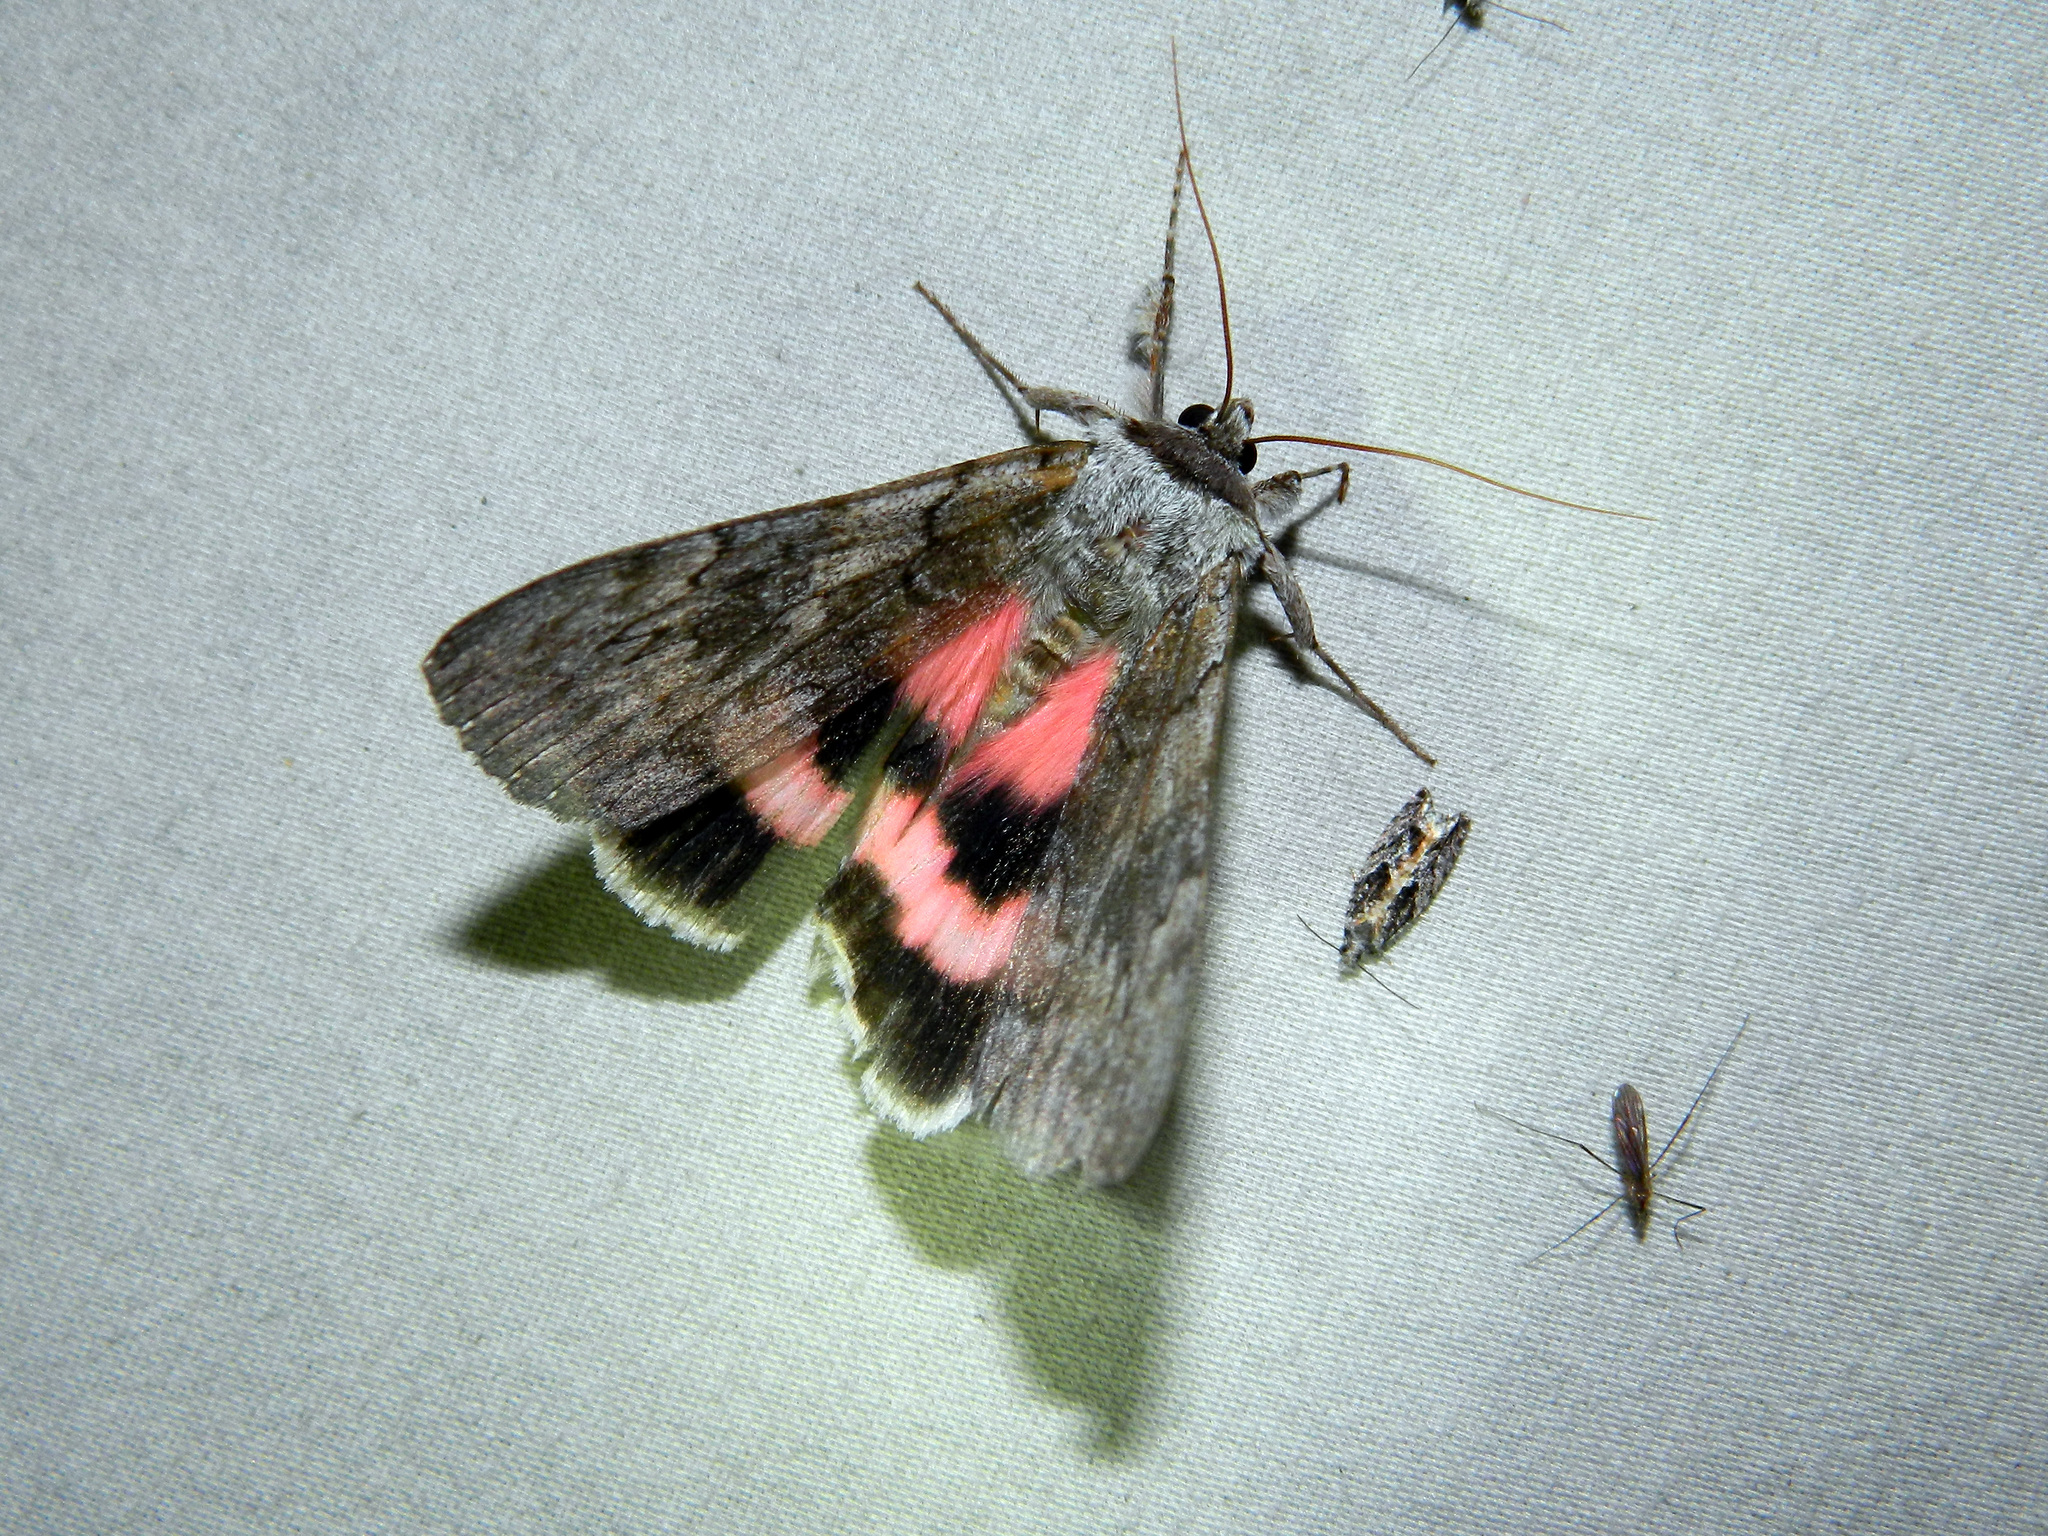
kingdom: Animalia
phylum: Arthropoda
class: Insecta
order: Lepidoptera
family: Erebidae
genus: Catocala
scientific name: Catocala concumbens
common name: Pink underwing
